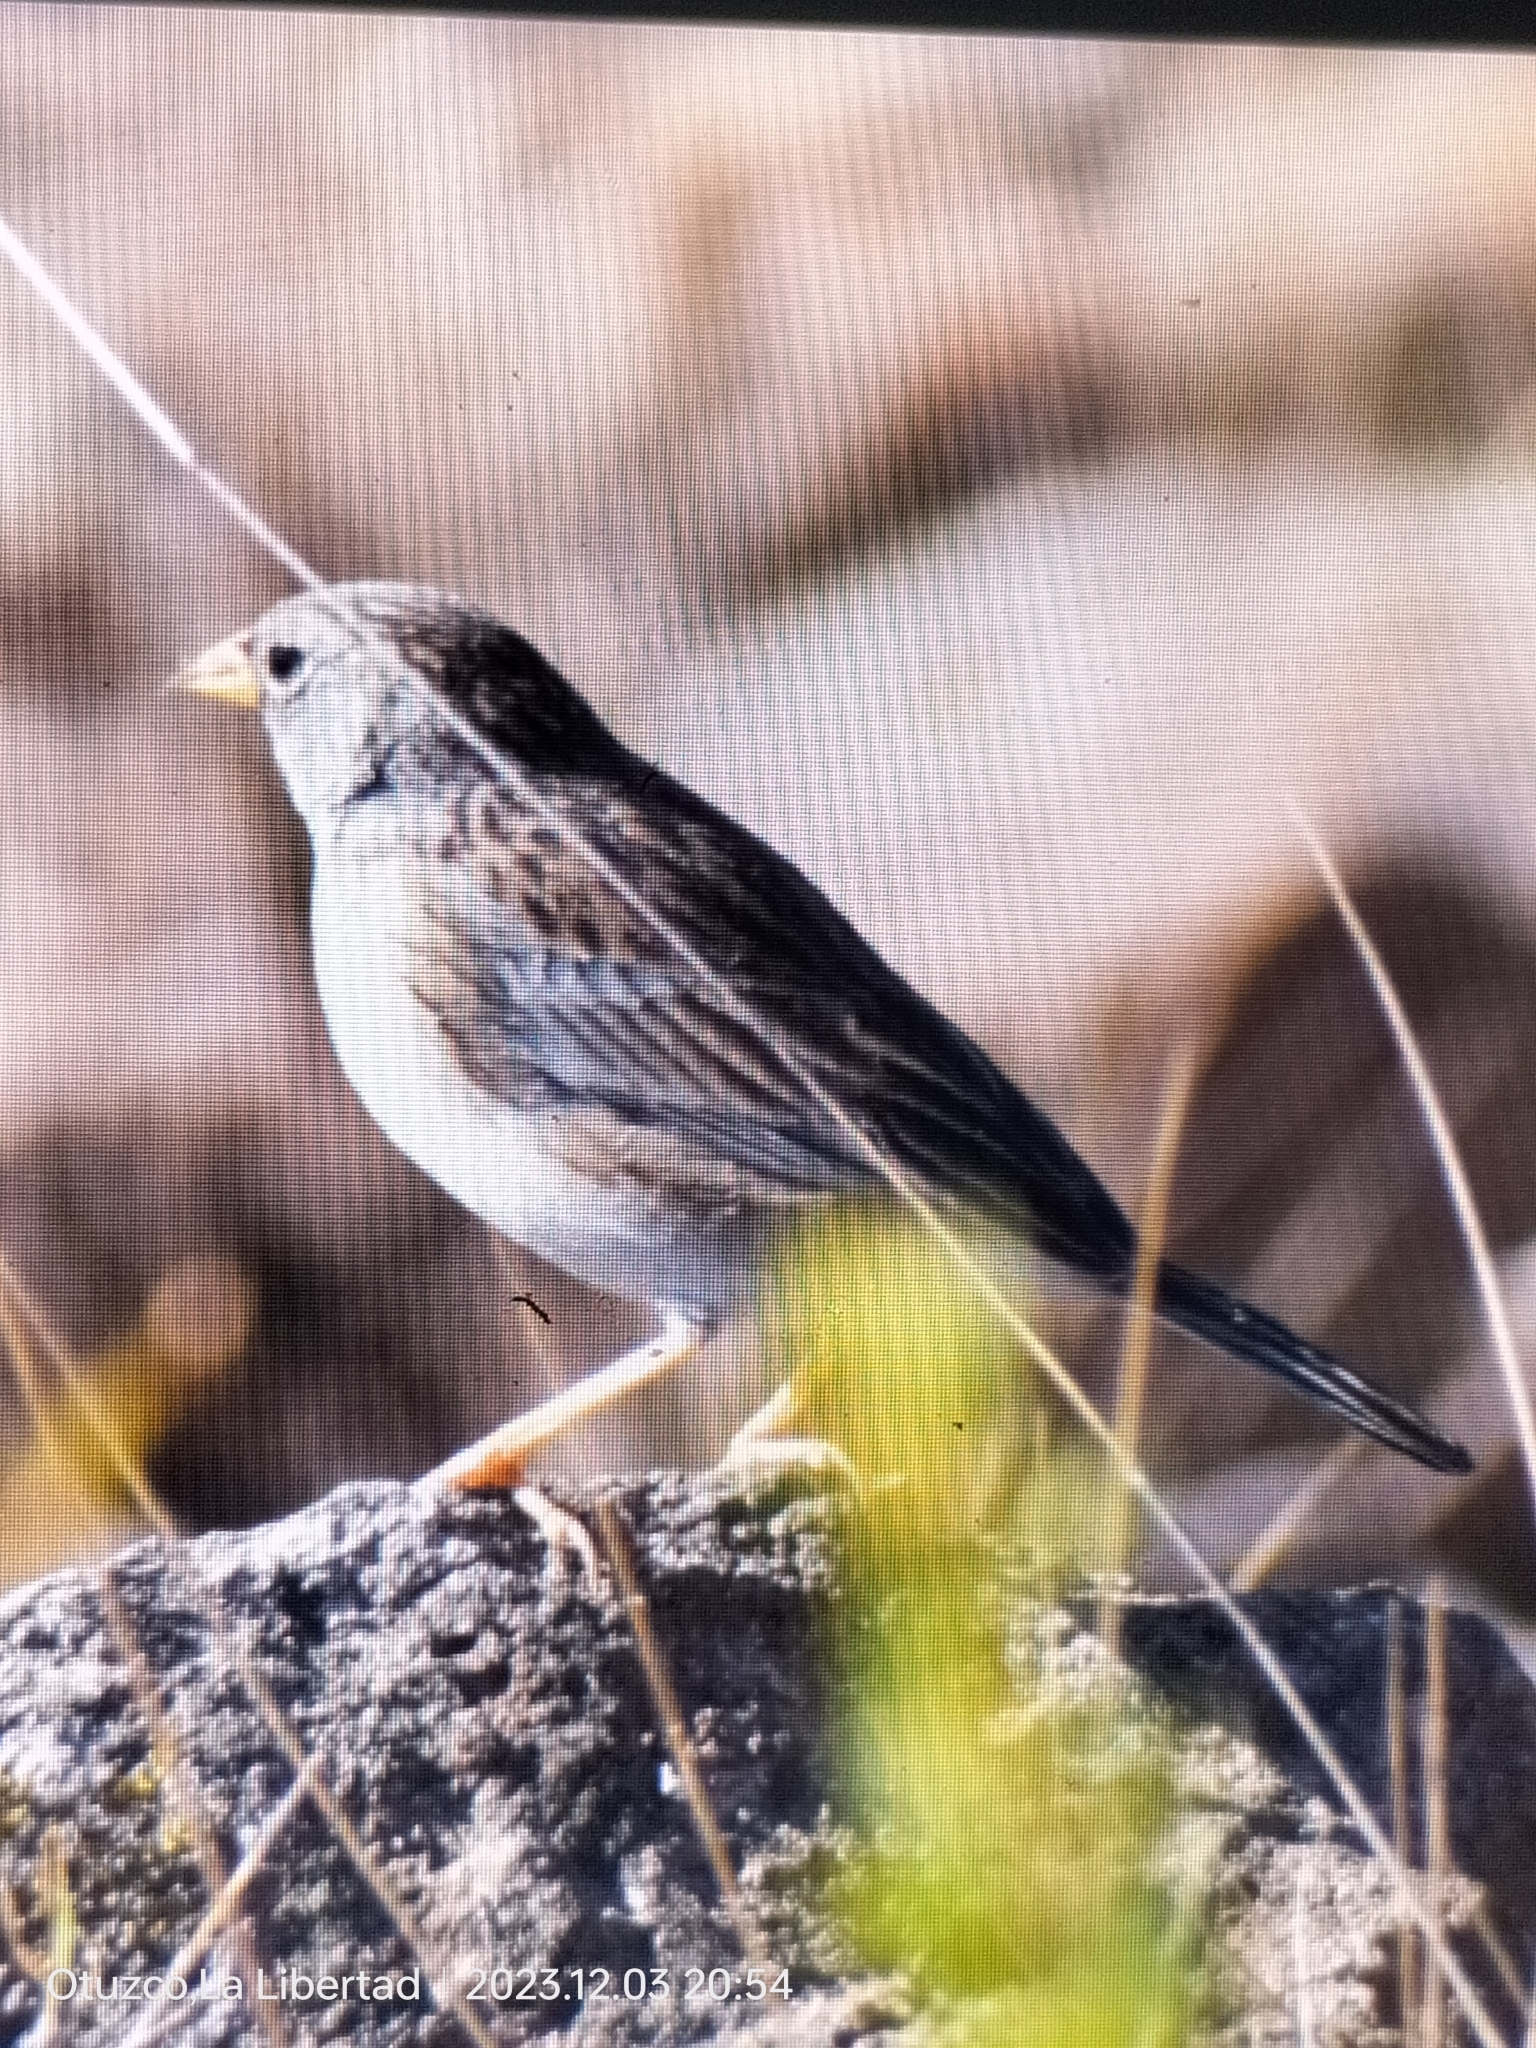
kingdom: Animalia
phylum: Chordata
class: Aves
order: Passeriformes
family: Thraupidae
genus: Porphyrospiza
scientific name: Porphyrospiza alaudina
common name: Band-tailed sierra finch
